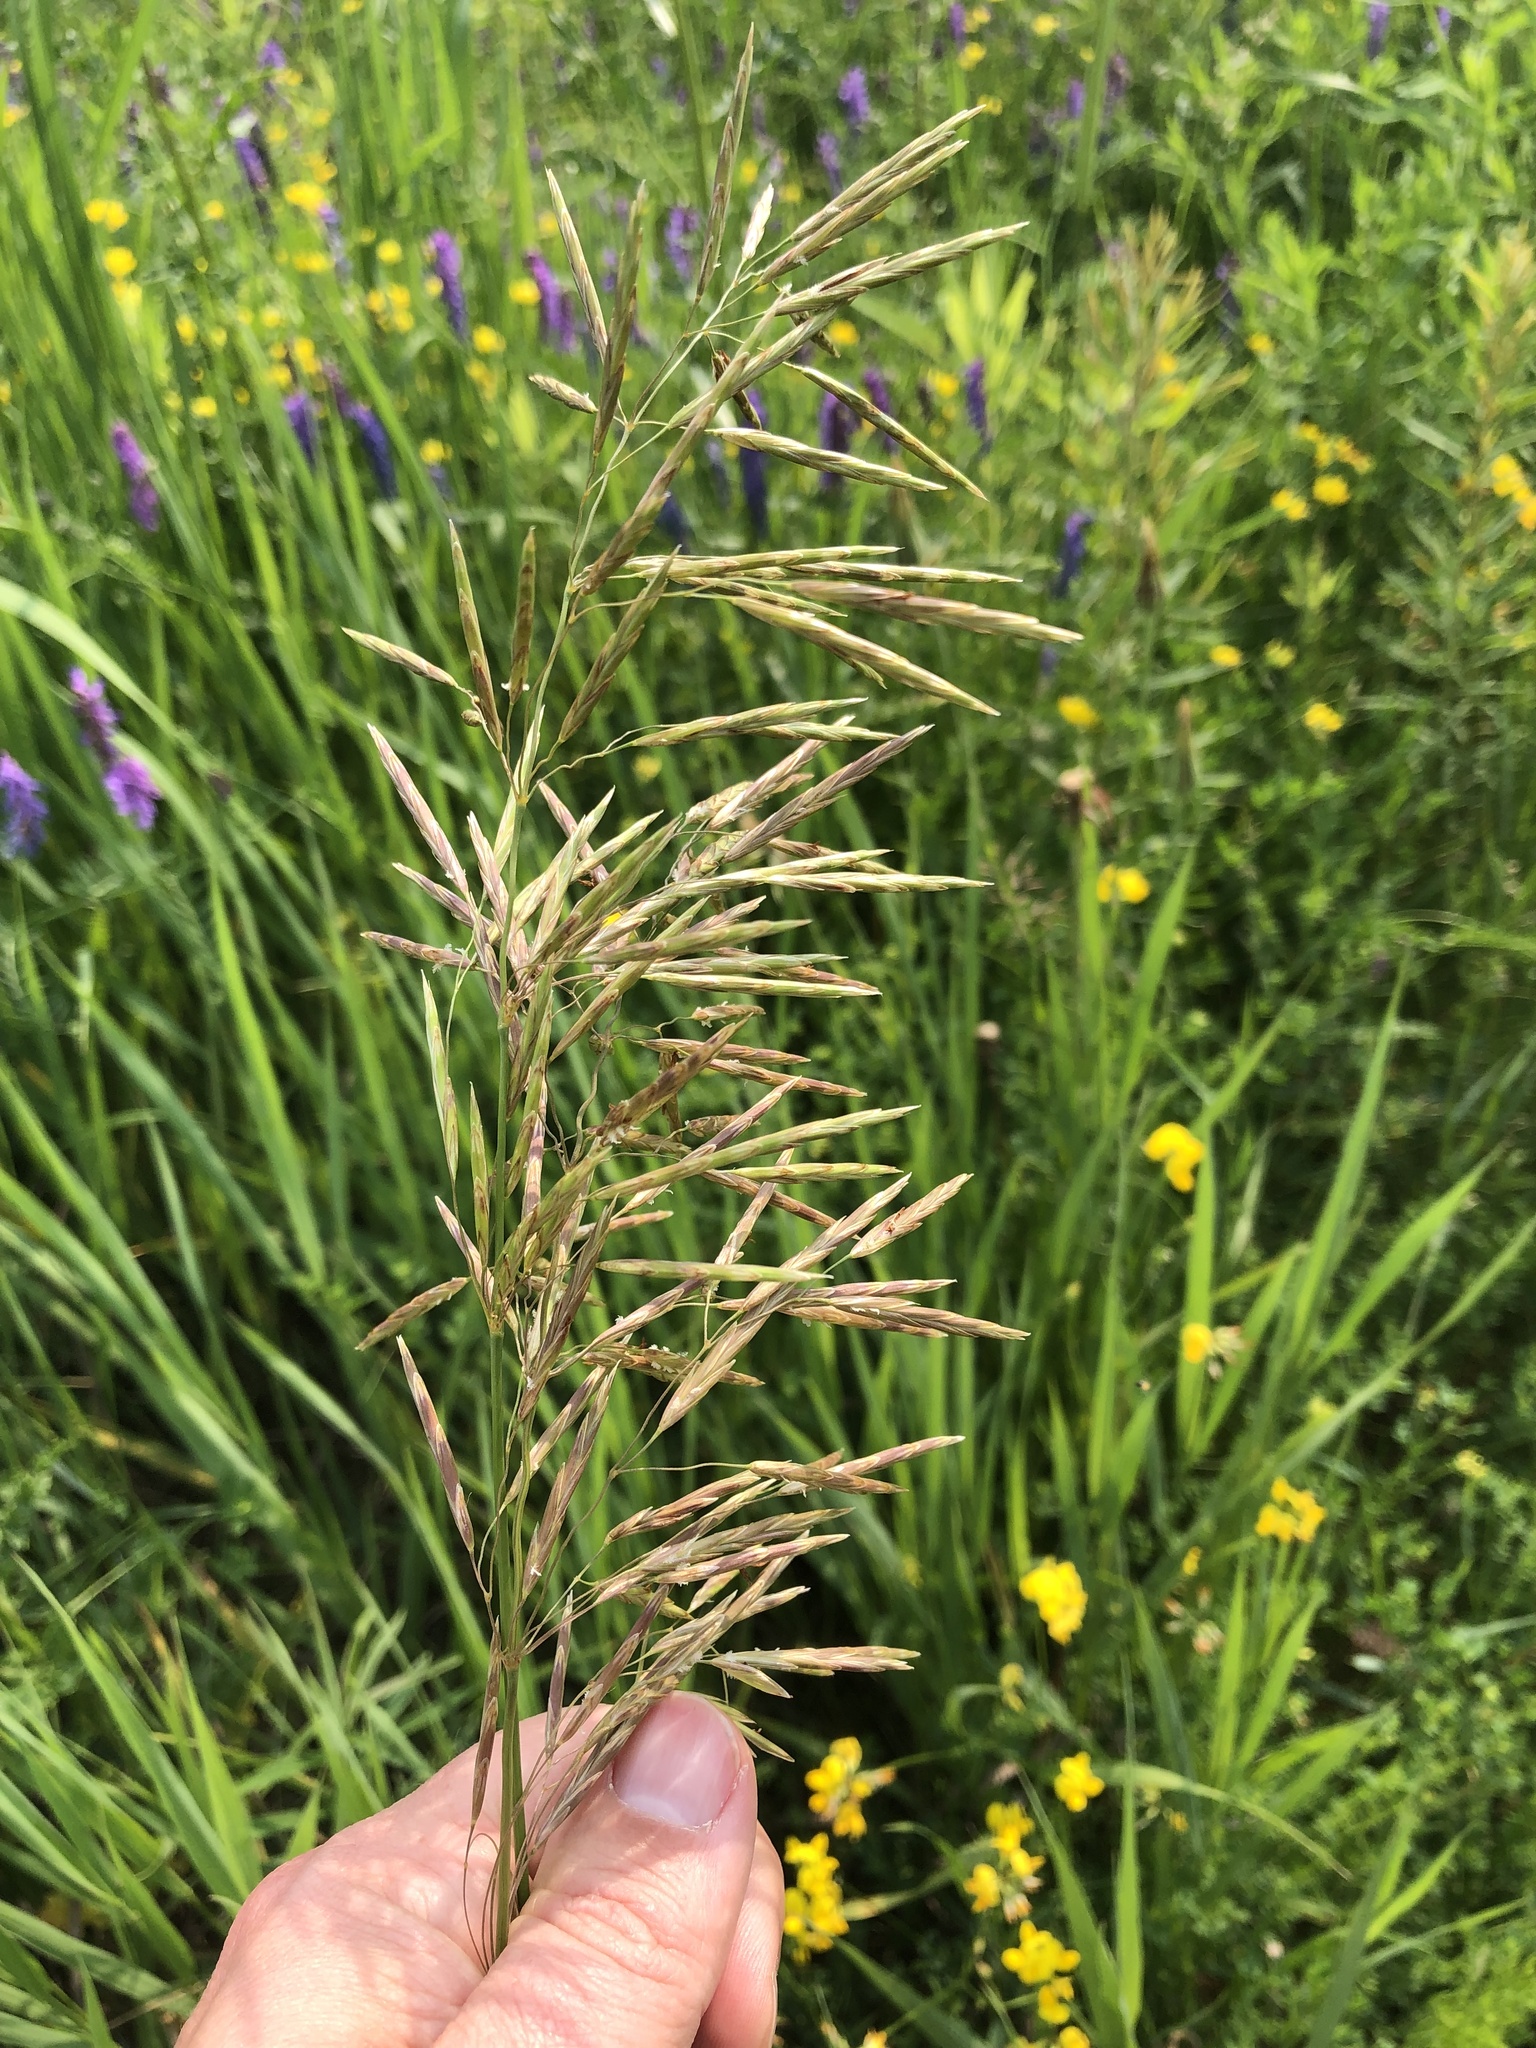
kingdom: Plantae
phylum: Tracheophyta
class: Liliopsida
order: Poales
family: Poaceae
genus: Bromus
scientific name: Bromus inermis
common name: Smooth brome
